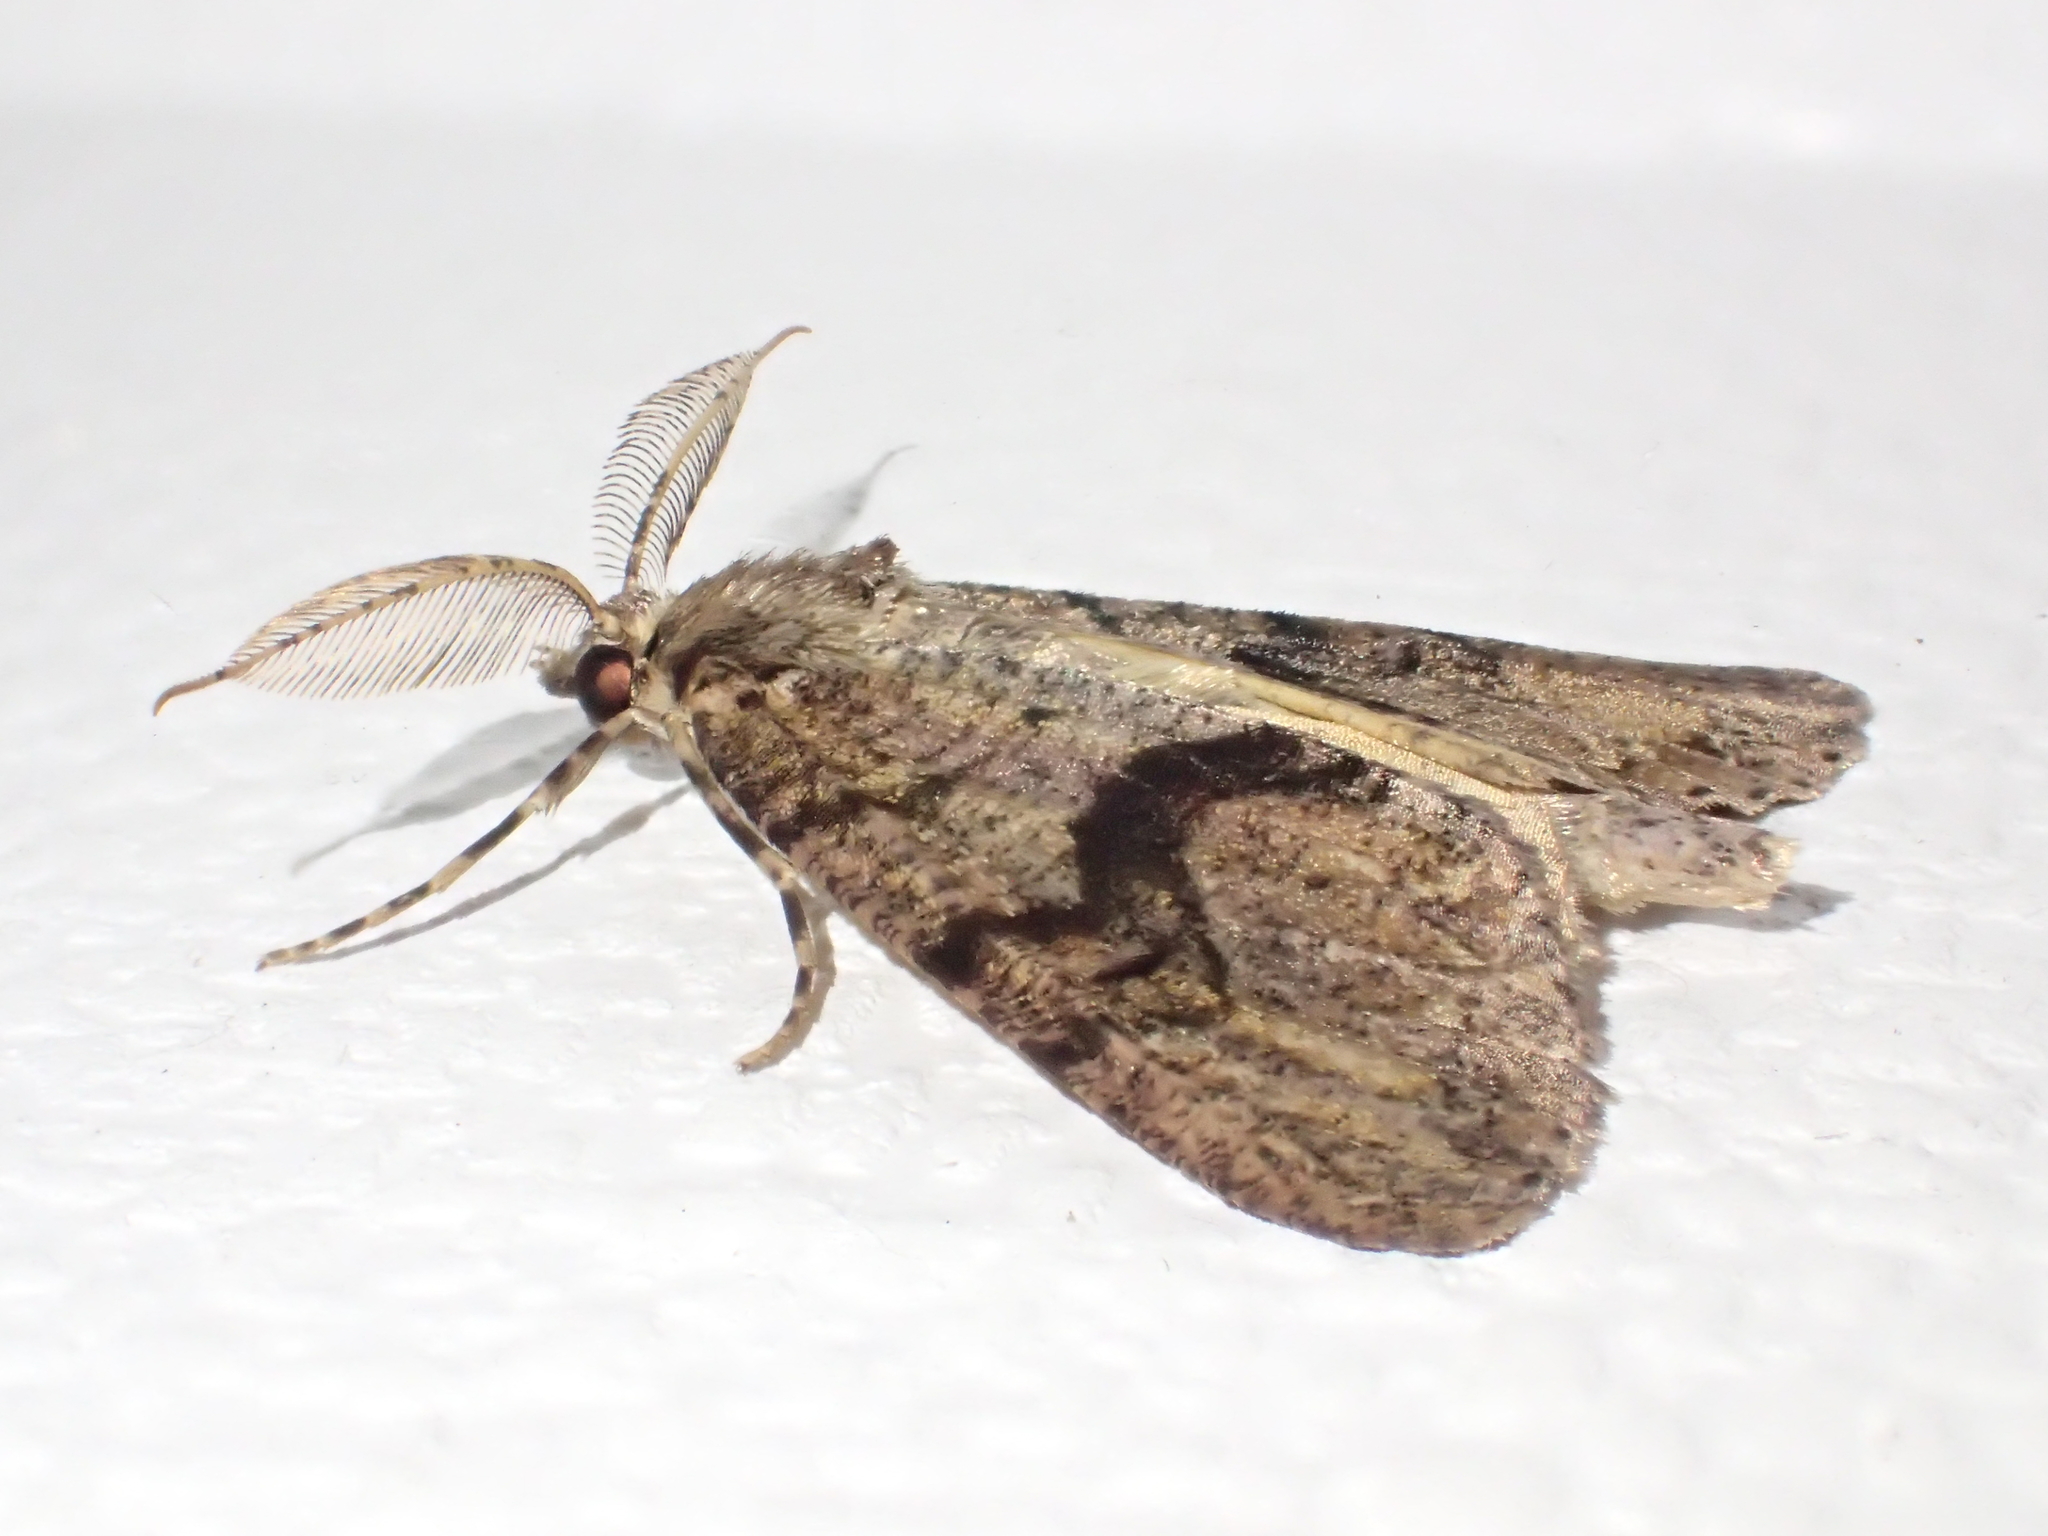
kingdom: Animalia
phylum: Arthropoda
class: Insecta
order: Lepidoptera
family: Geometridae
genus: Pseudocoremia
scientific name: Pseudocoremia suavis
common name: Common forest looper
